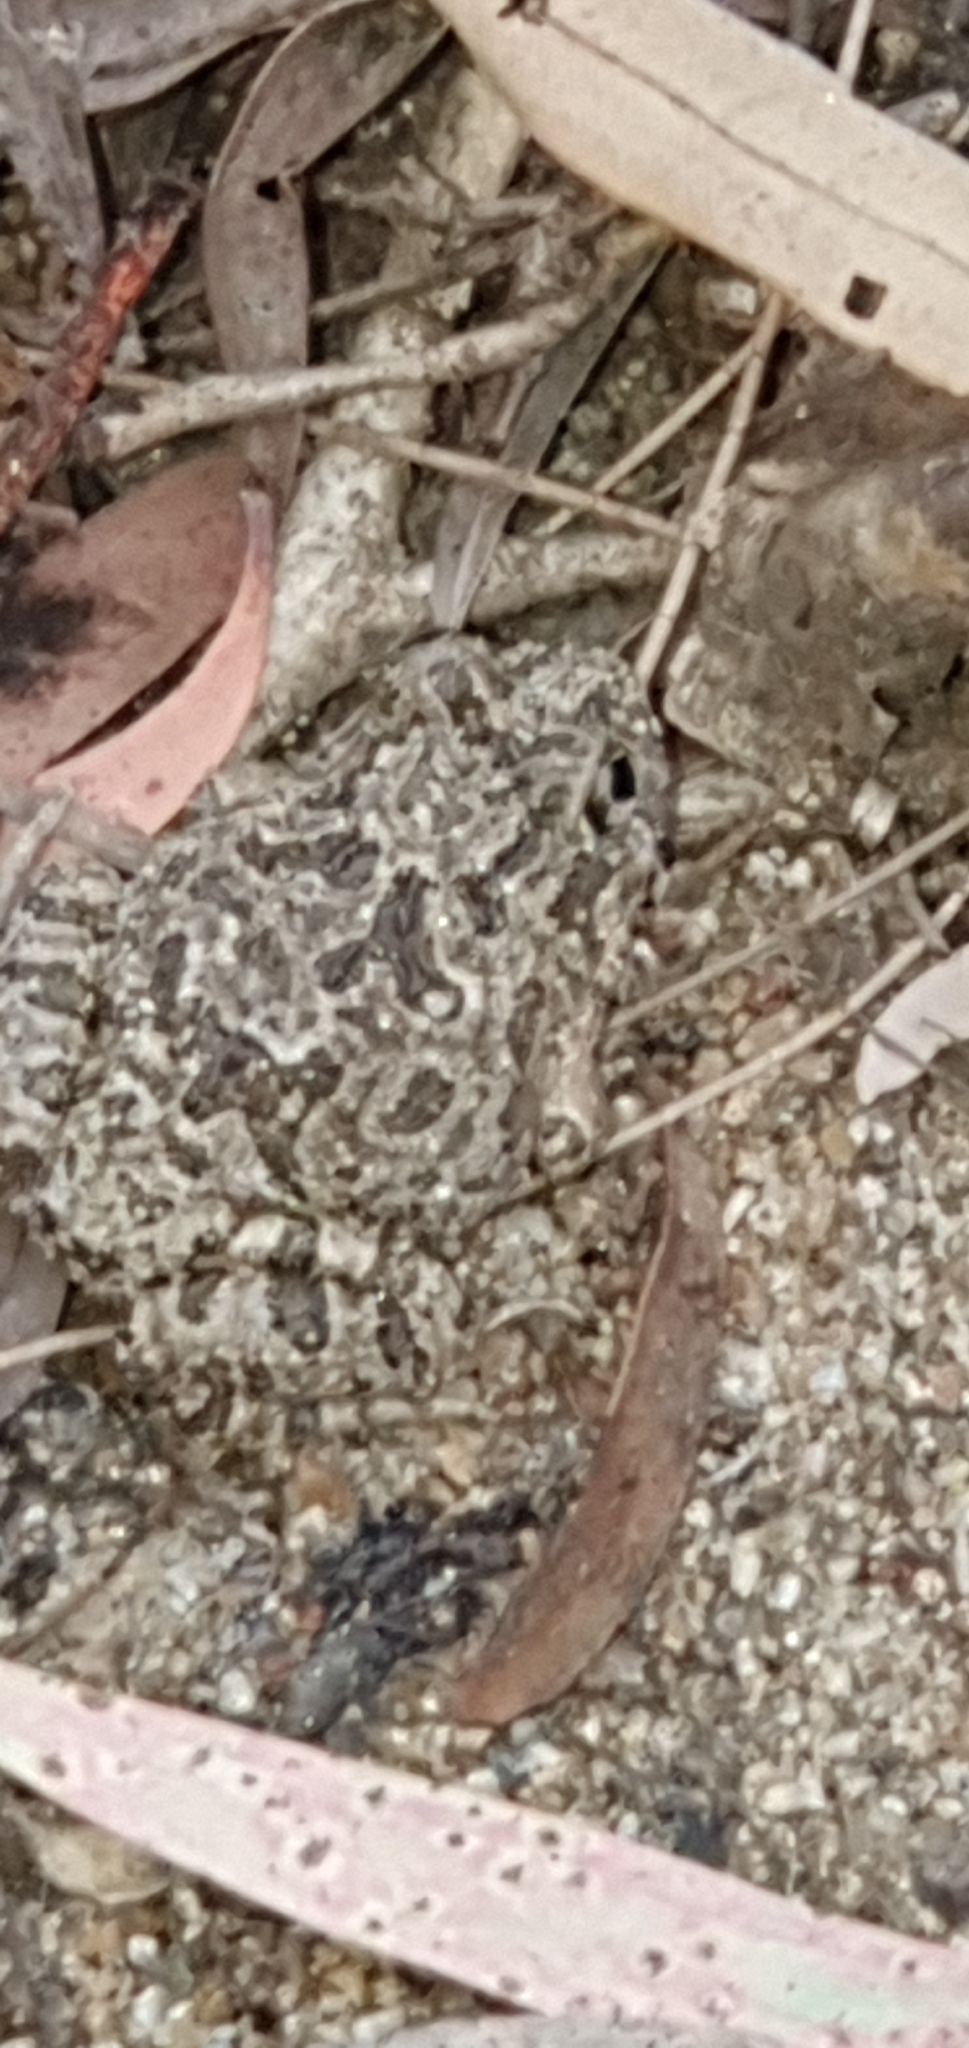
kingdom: Animalia
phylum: Chordata
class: Amphibia
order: Anura
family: Limnodynastidae
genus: Platyplectrum
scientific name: Platyplectrum ornatum
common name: Ornate burrowing frog
